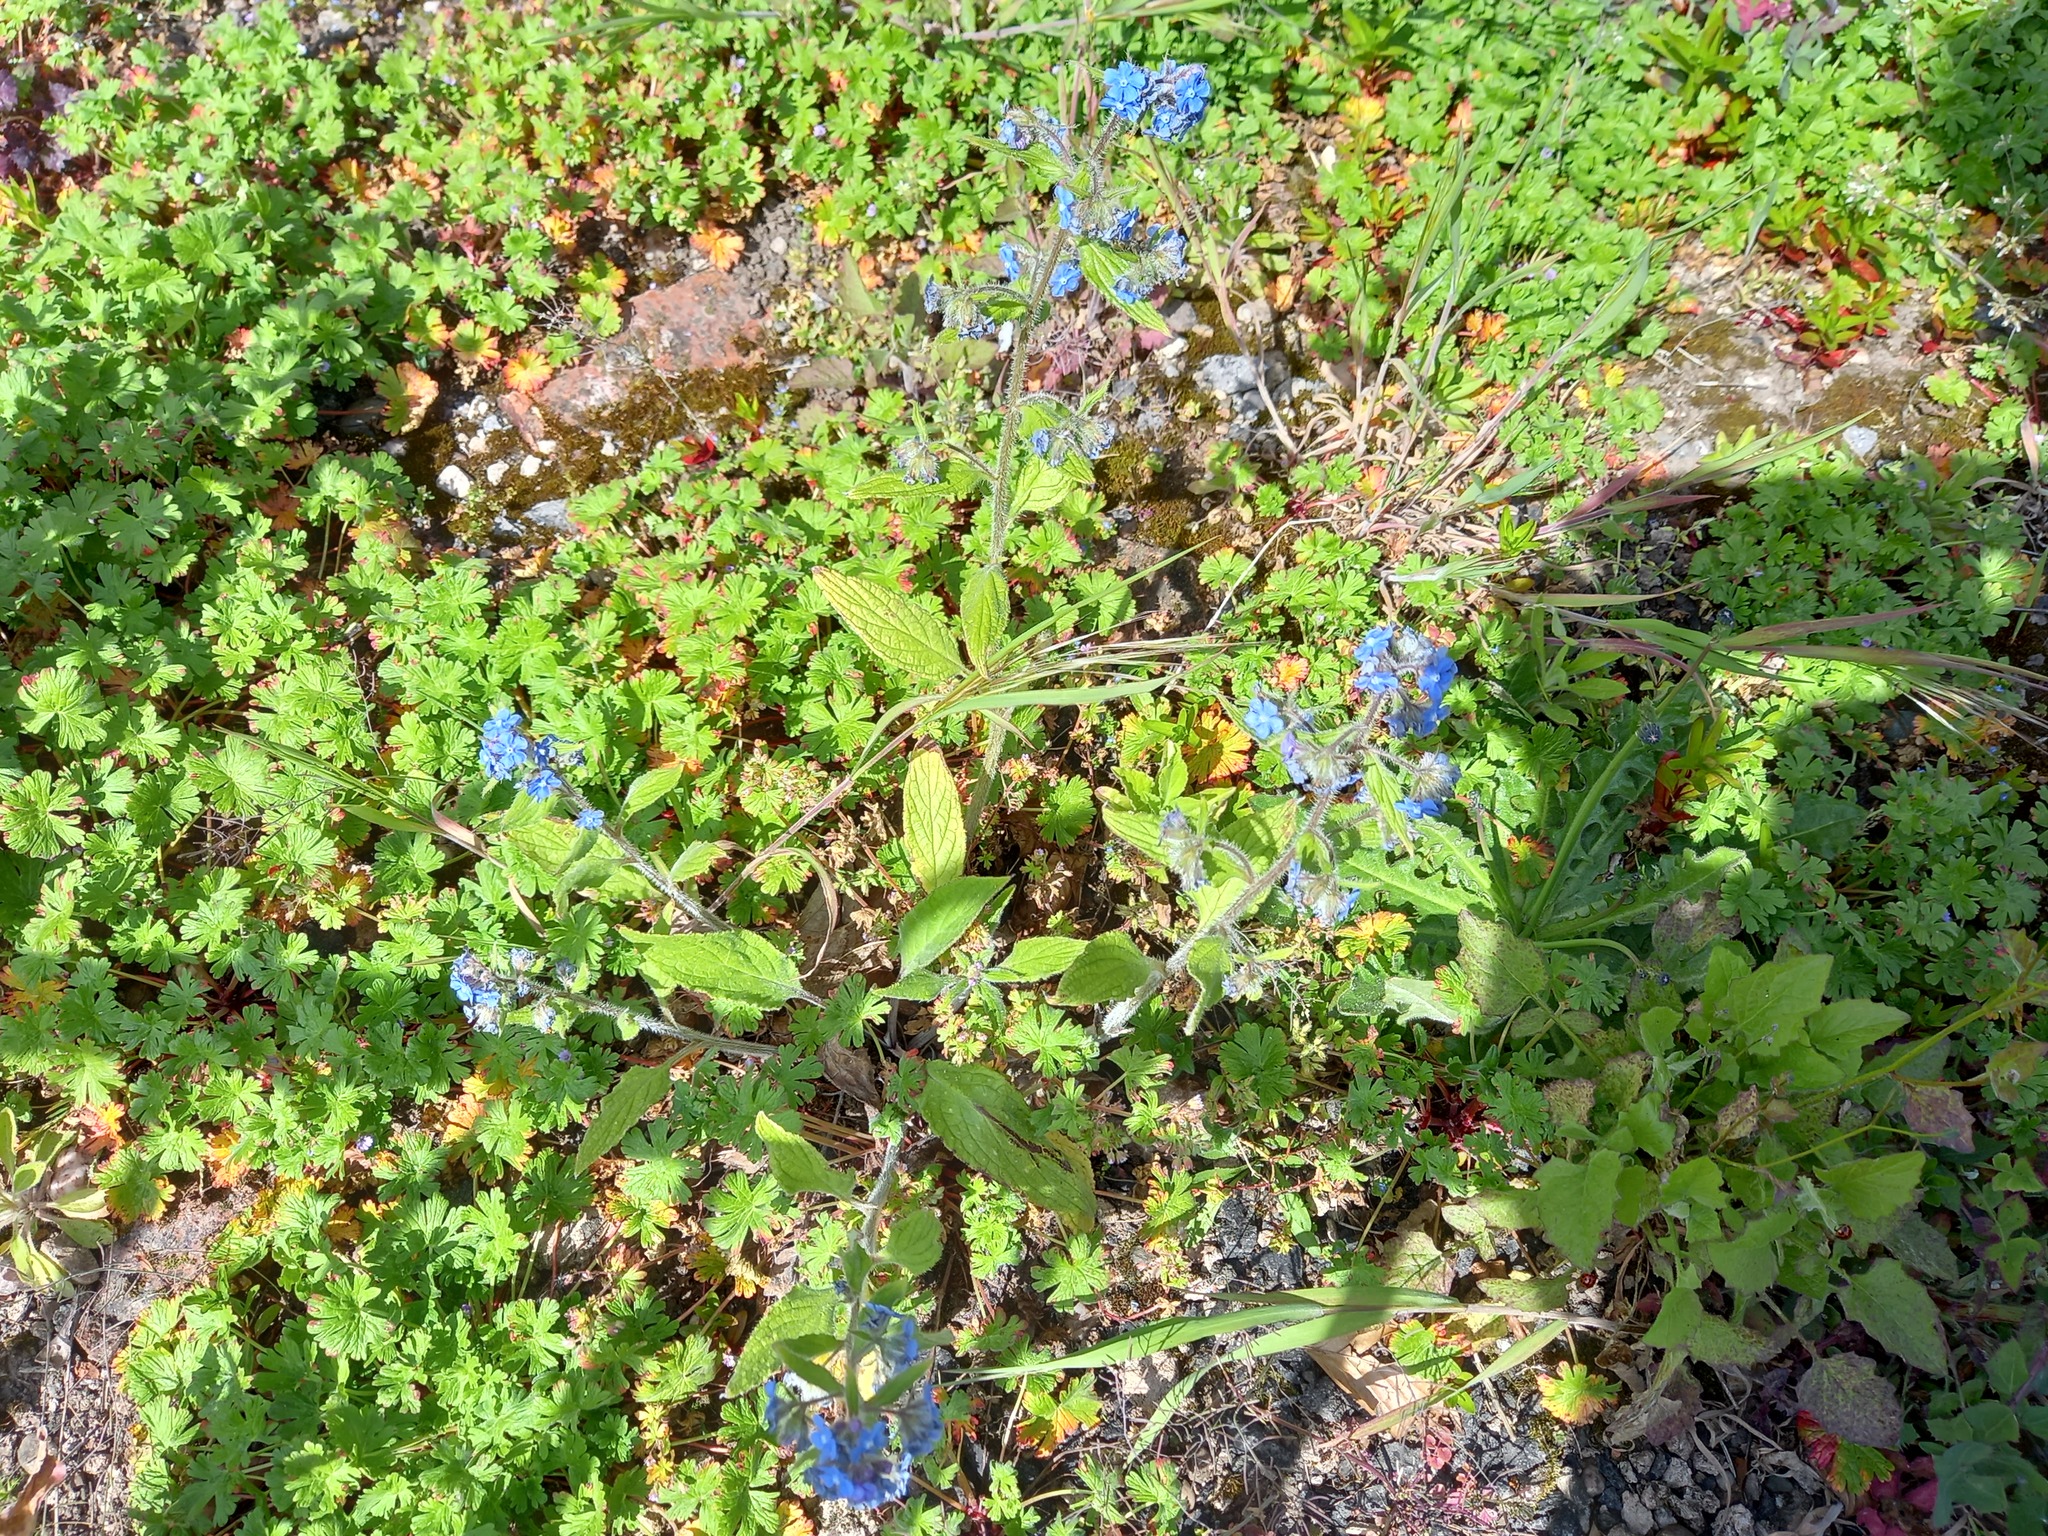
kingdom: Plantae
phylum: Tracheophyta
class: Magnoliopsida
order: Boraginales
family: Boraginaceae
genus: Pentaglottis
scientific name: Pentaglottis sempervirens
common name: Green alkanet
